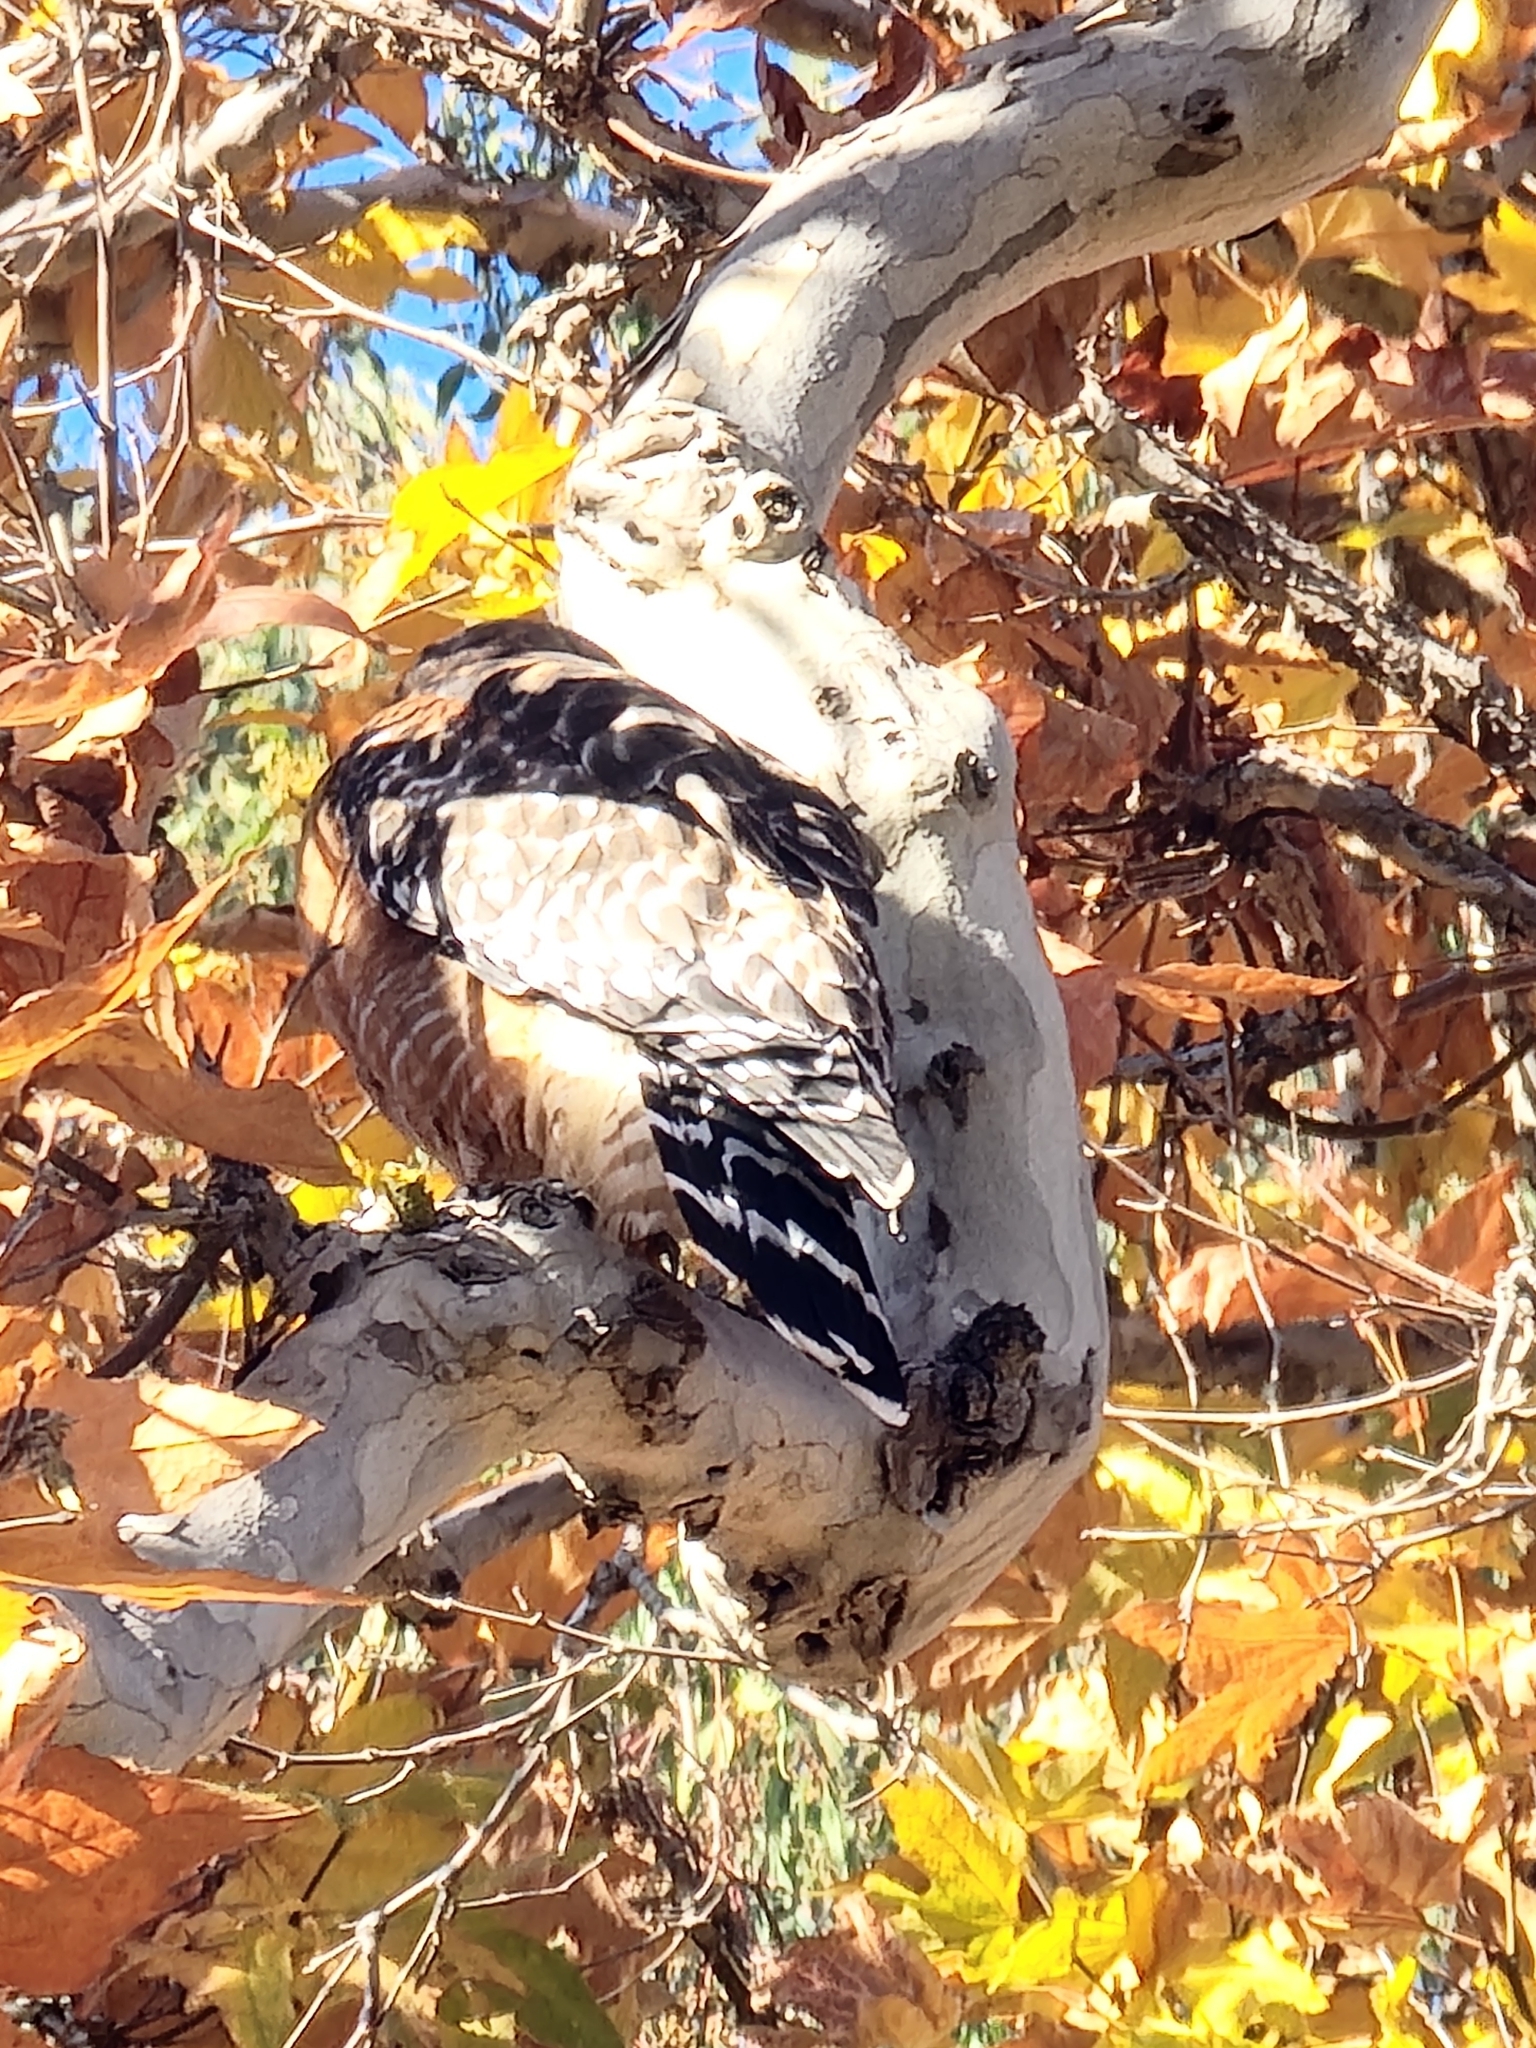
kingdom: Animalia
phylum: Chordata
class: Aves
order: Accipitriformes
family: Accipitridae
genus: Buteo
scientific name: Buteo lineatus
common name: Red-shouldered hawk
